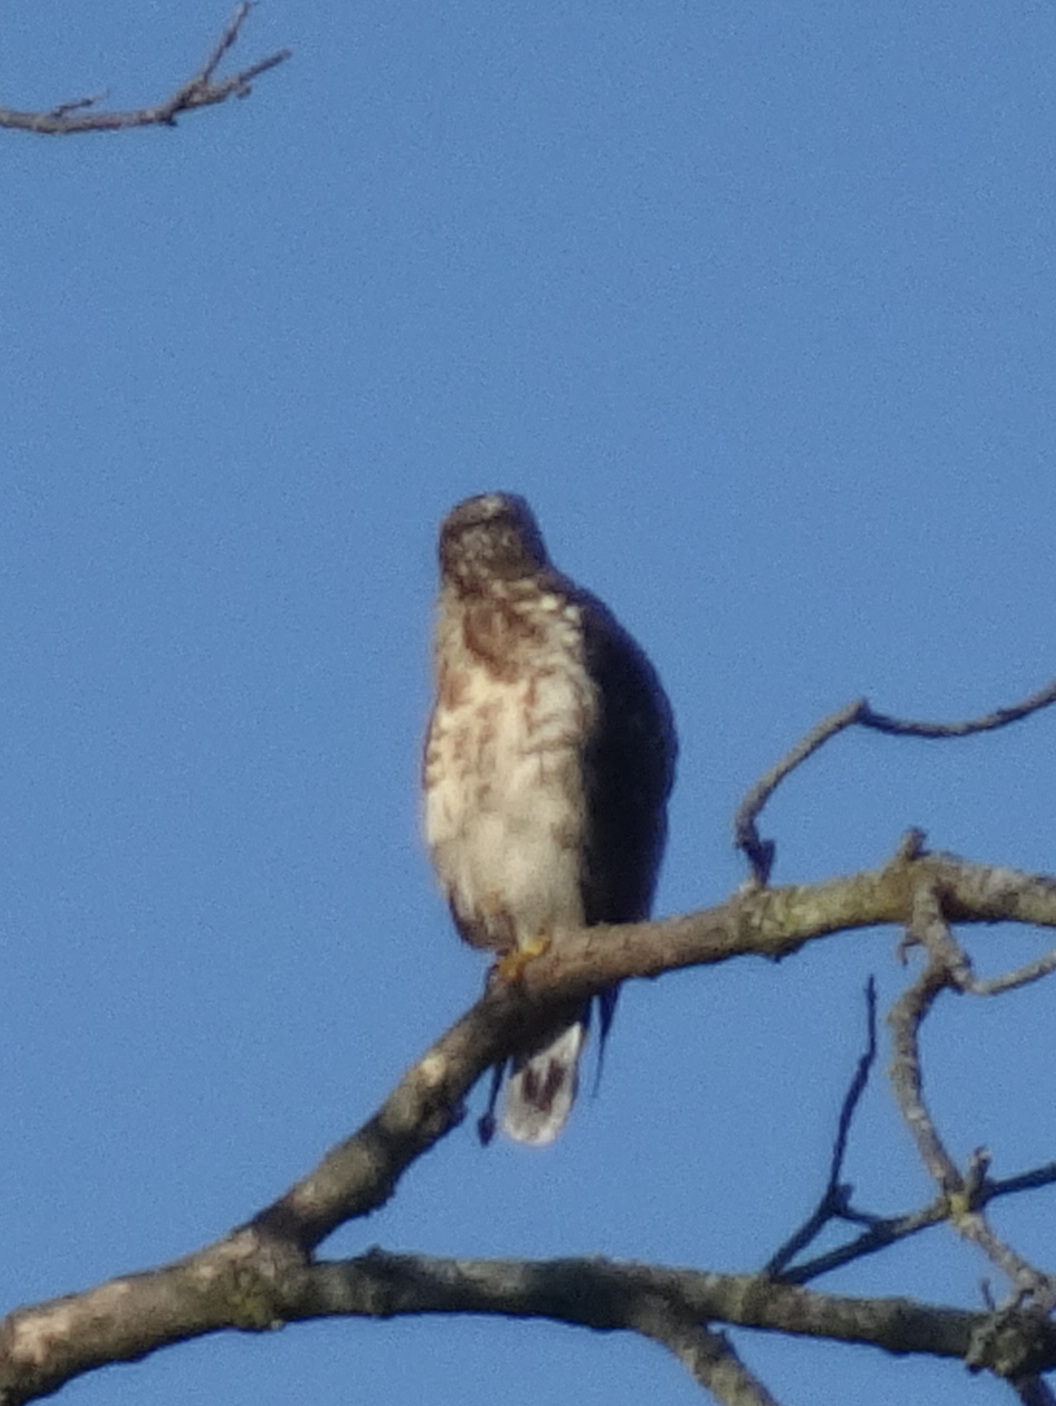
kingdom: Animalia
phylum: Chordata
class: Aves
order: Accipitriformes
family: Accipitridae
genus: Buteo
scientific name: Buteo platypterus
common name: Broad-winged hawk
